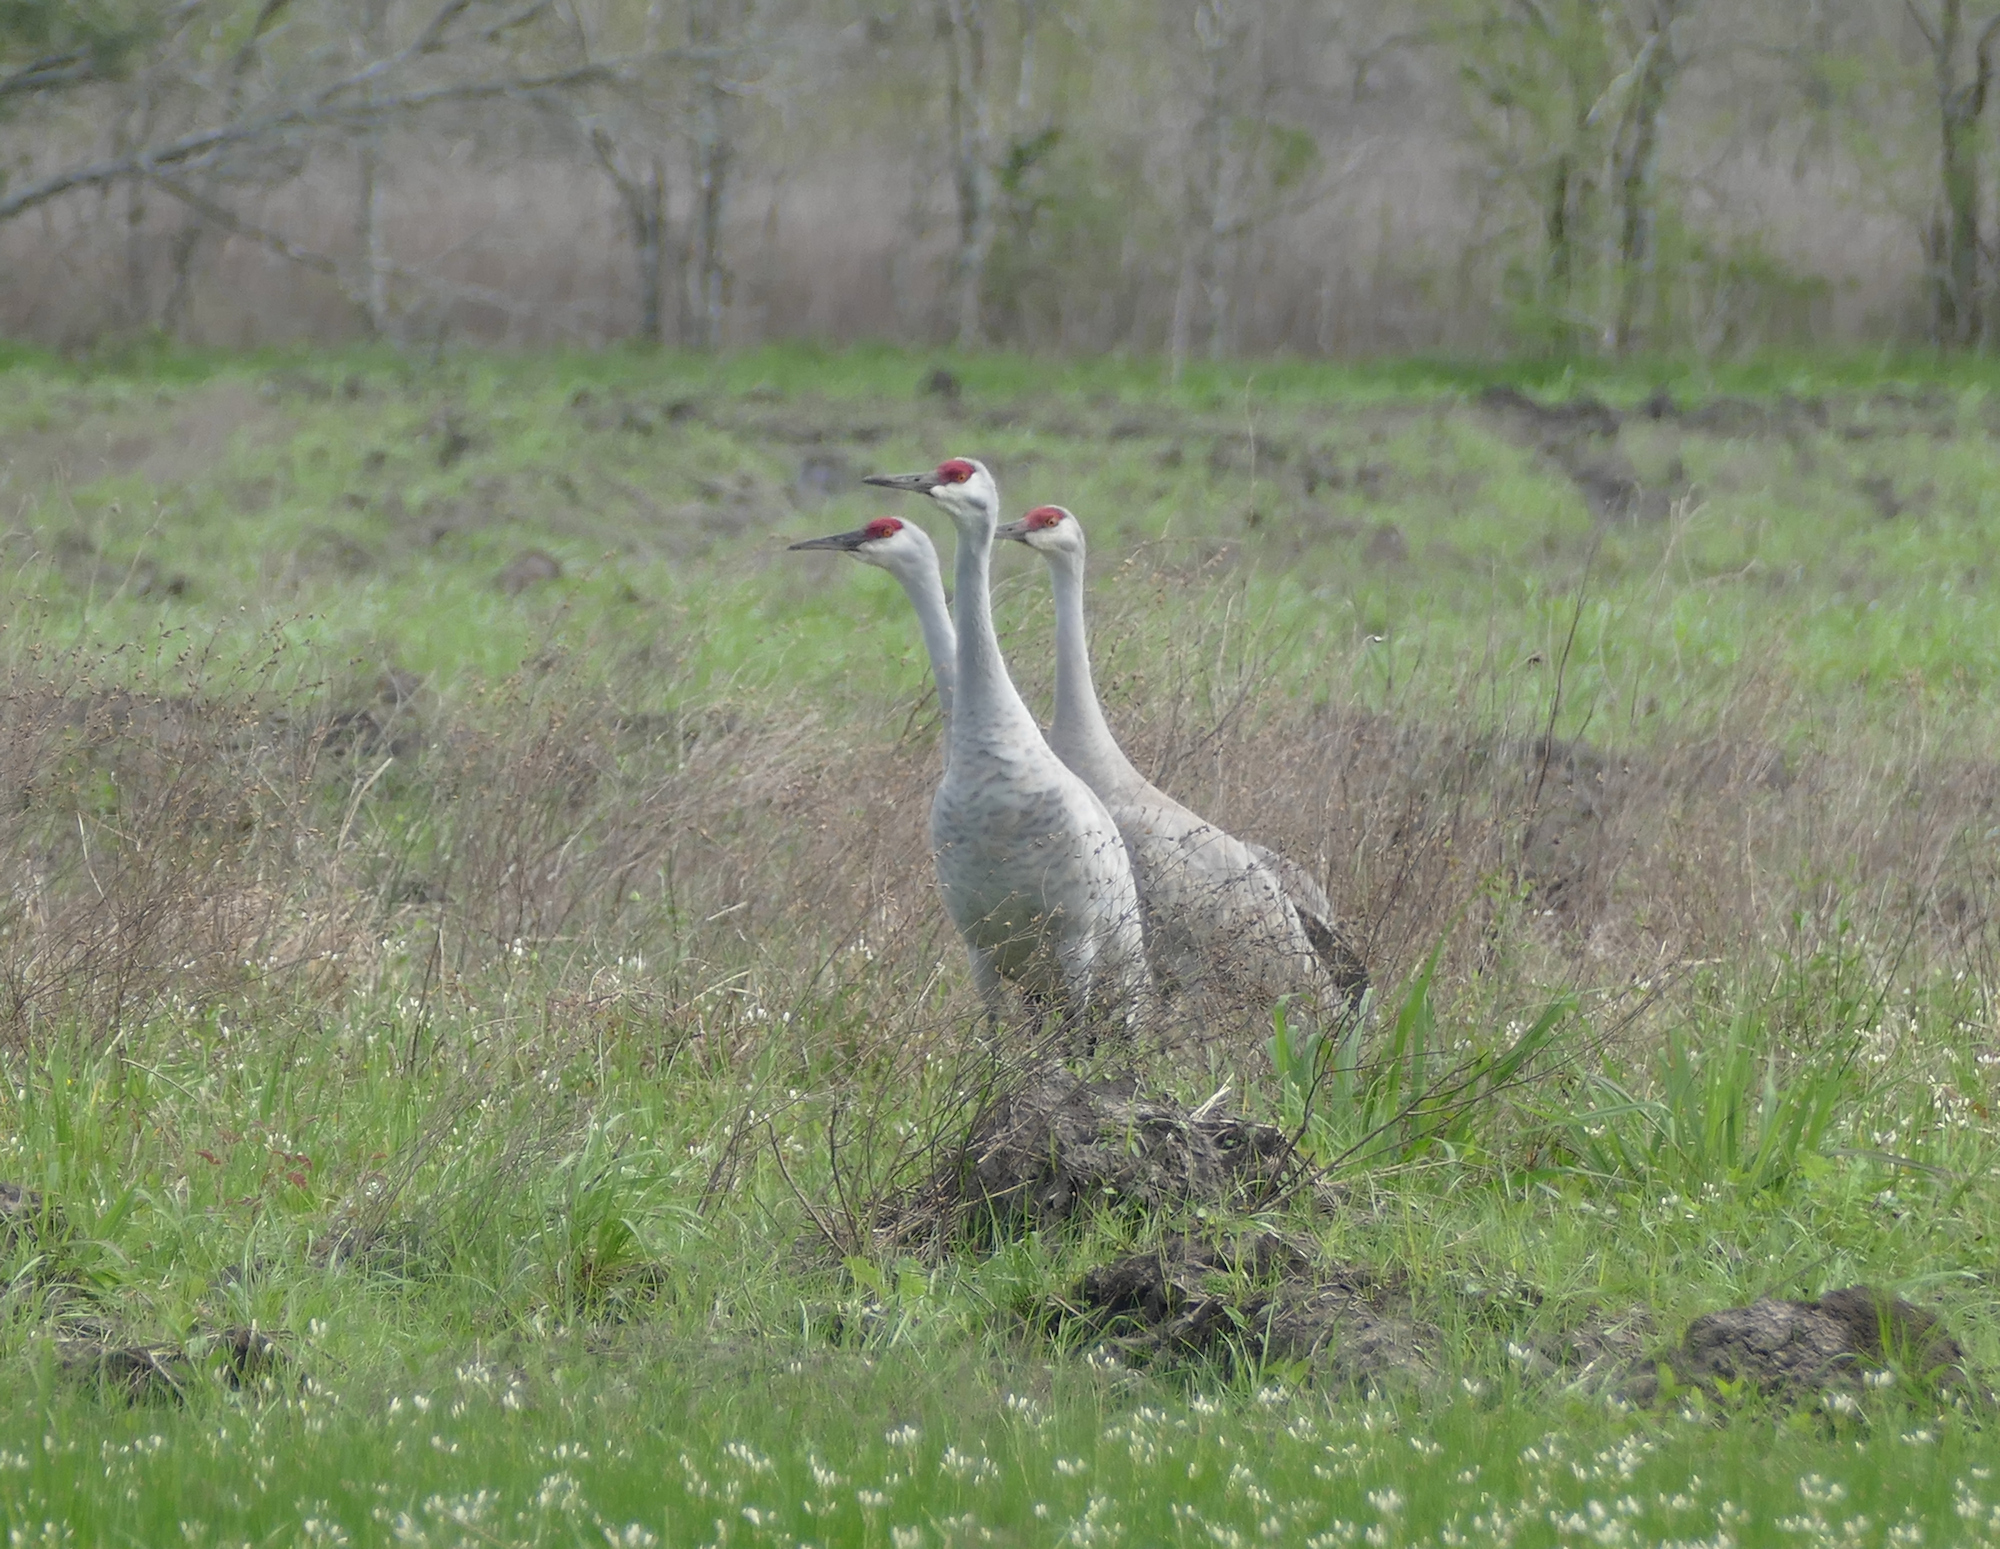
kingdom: Animalia
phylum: Chordata
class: Aves
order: Gruiformes
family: Gruidae
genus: Grus
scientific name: Grus canadensis
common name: Sandhill crane
